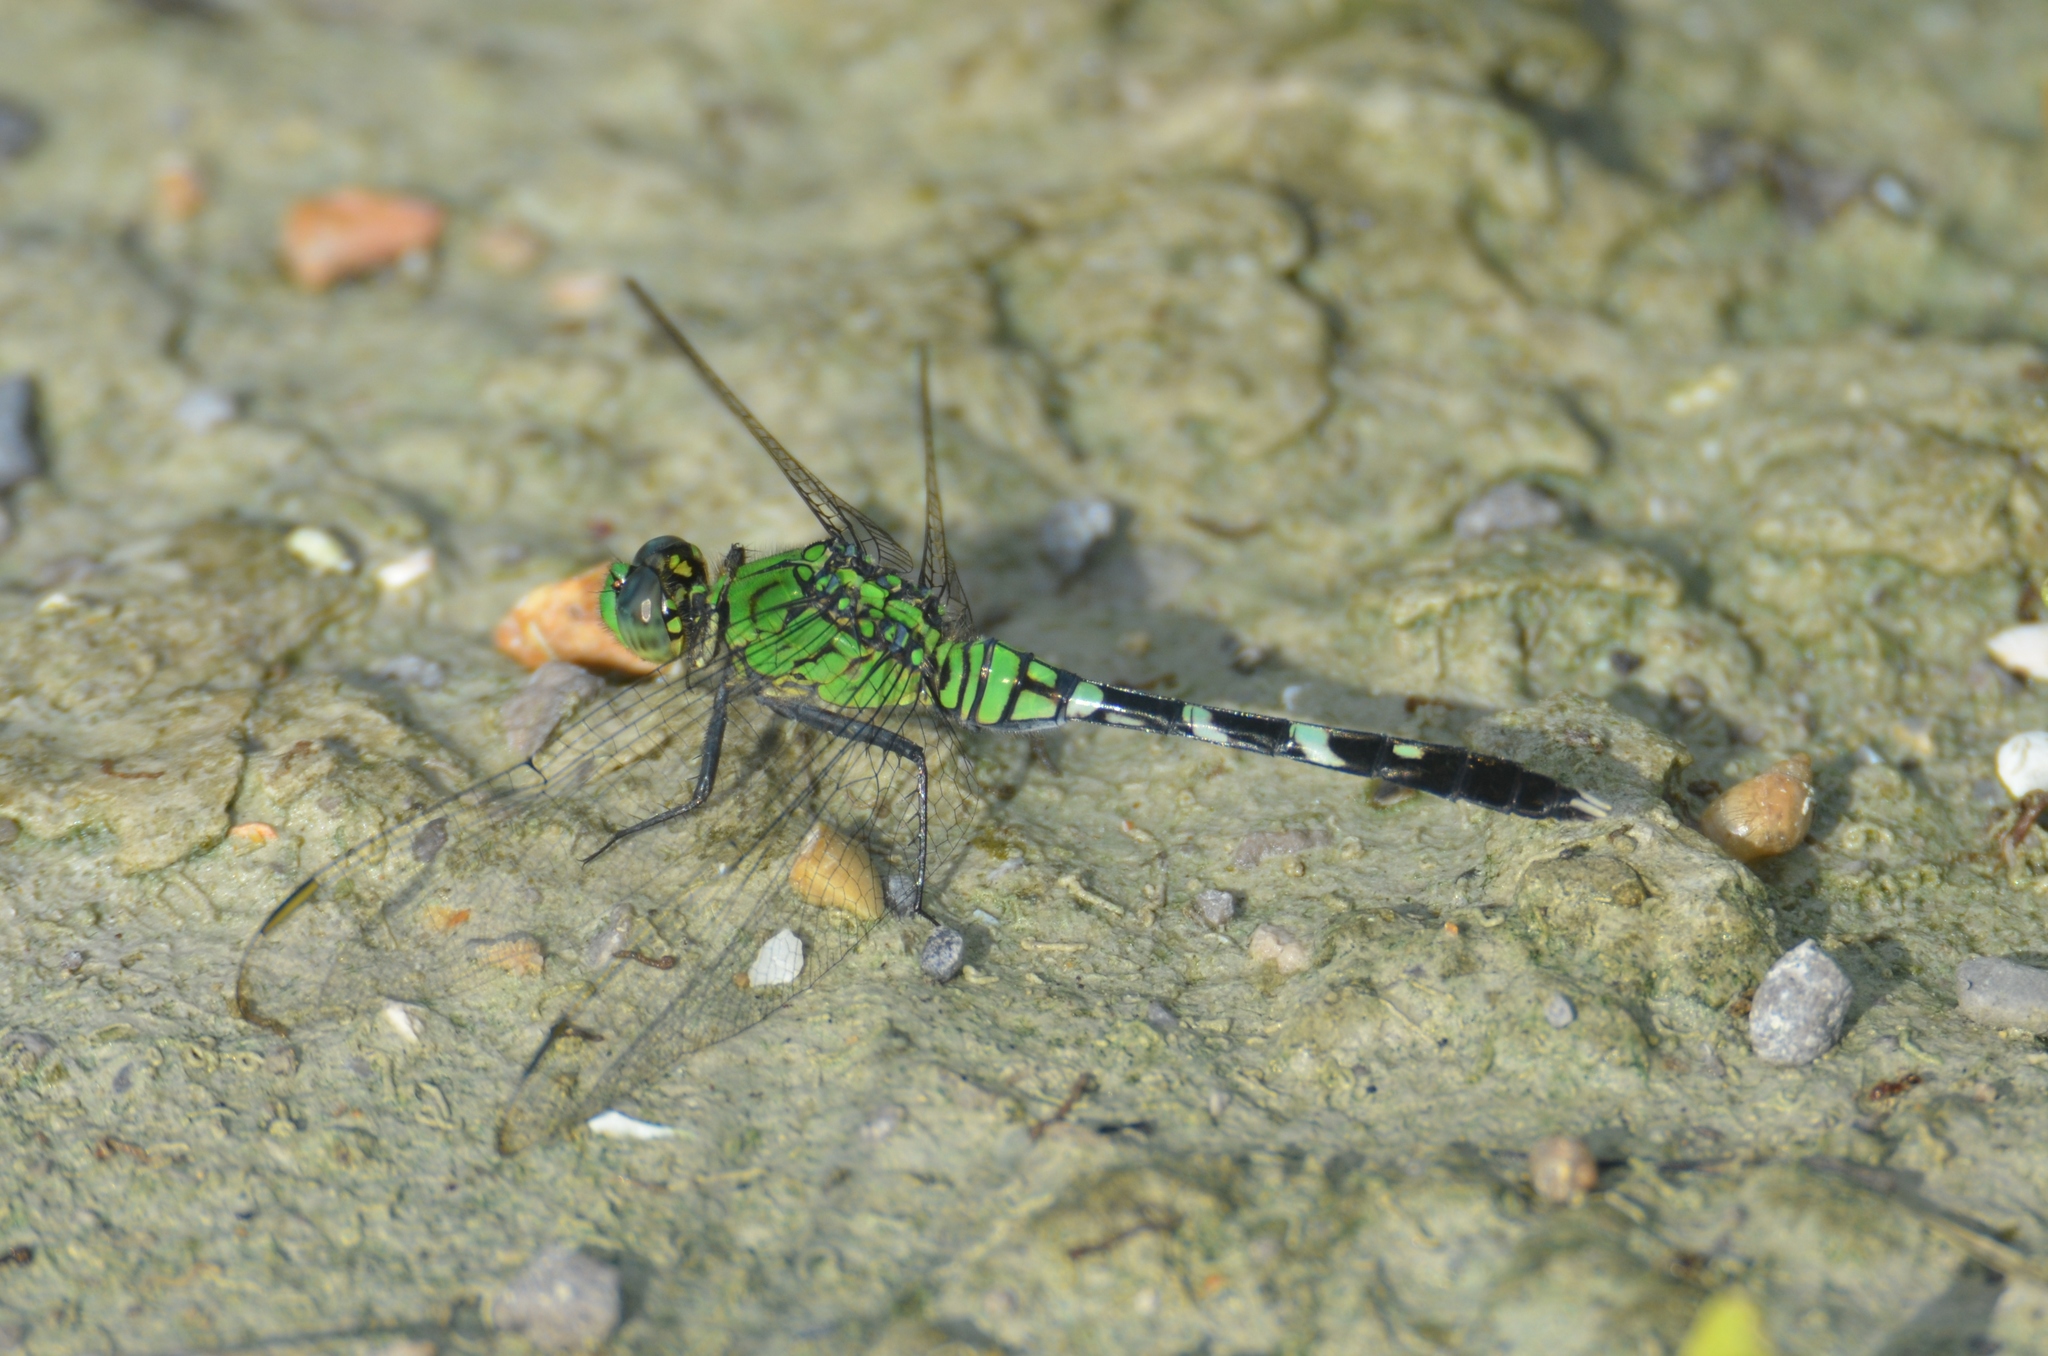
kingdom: Animalia
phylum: Arthropoda
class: Insecta
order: Odonata
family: Libellulidae
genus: Erythemis
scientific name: Erythemis simplicicollis
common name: Eastern pondhawk
